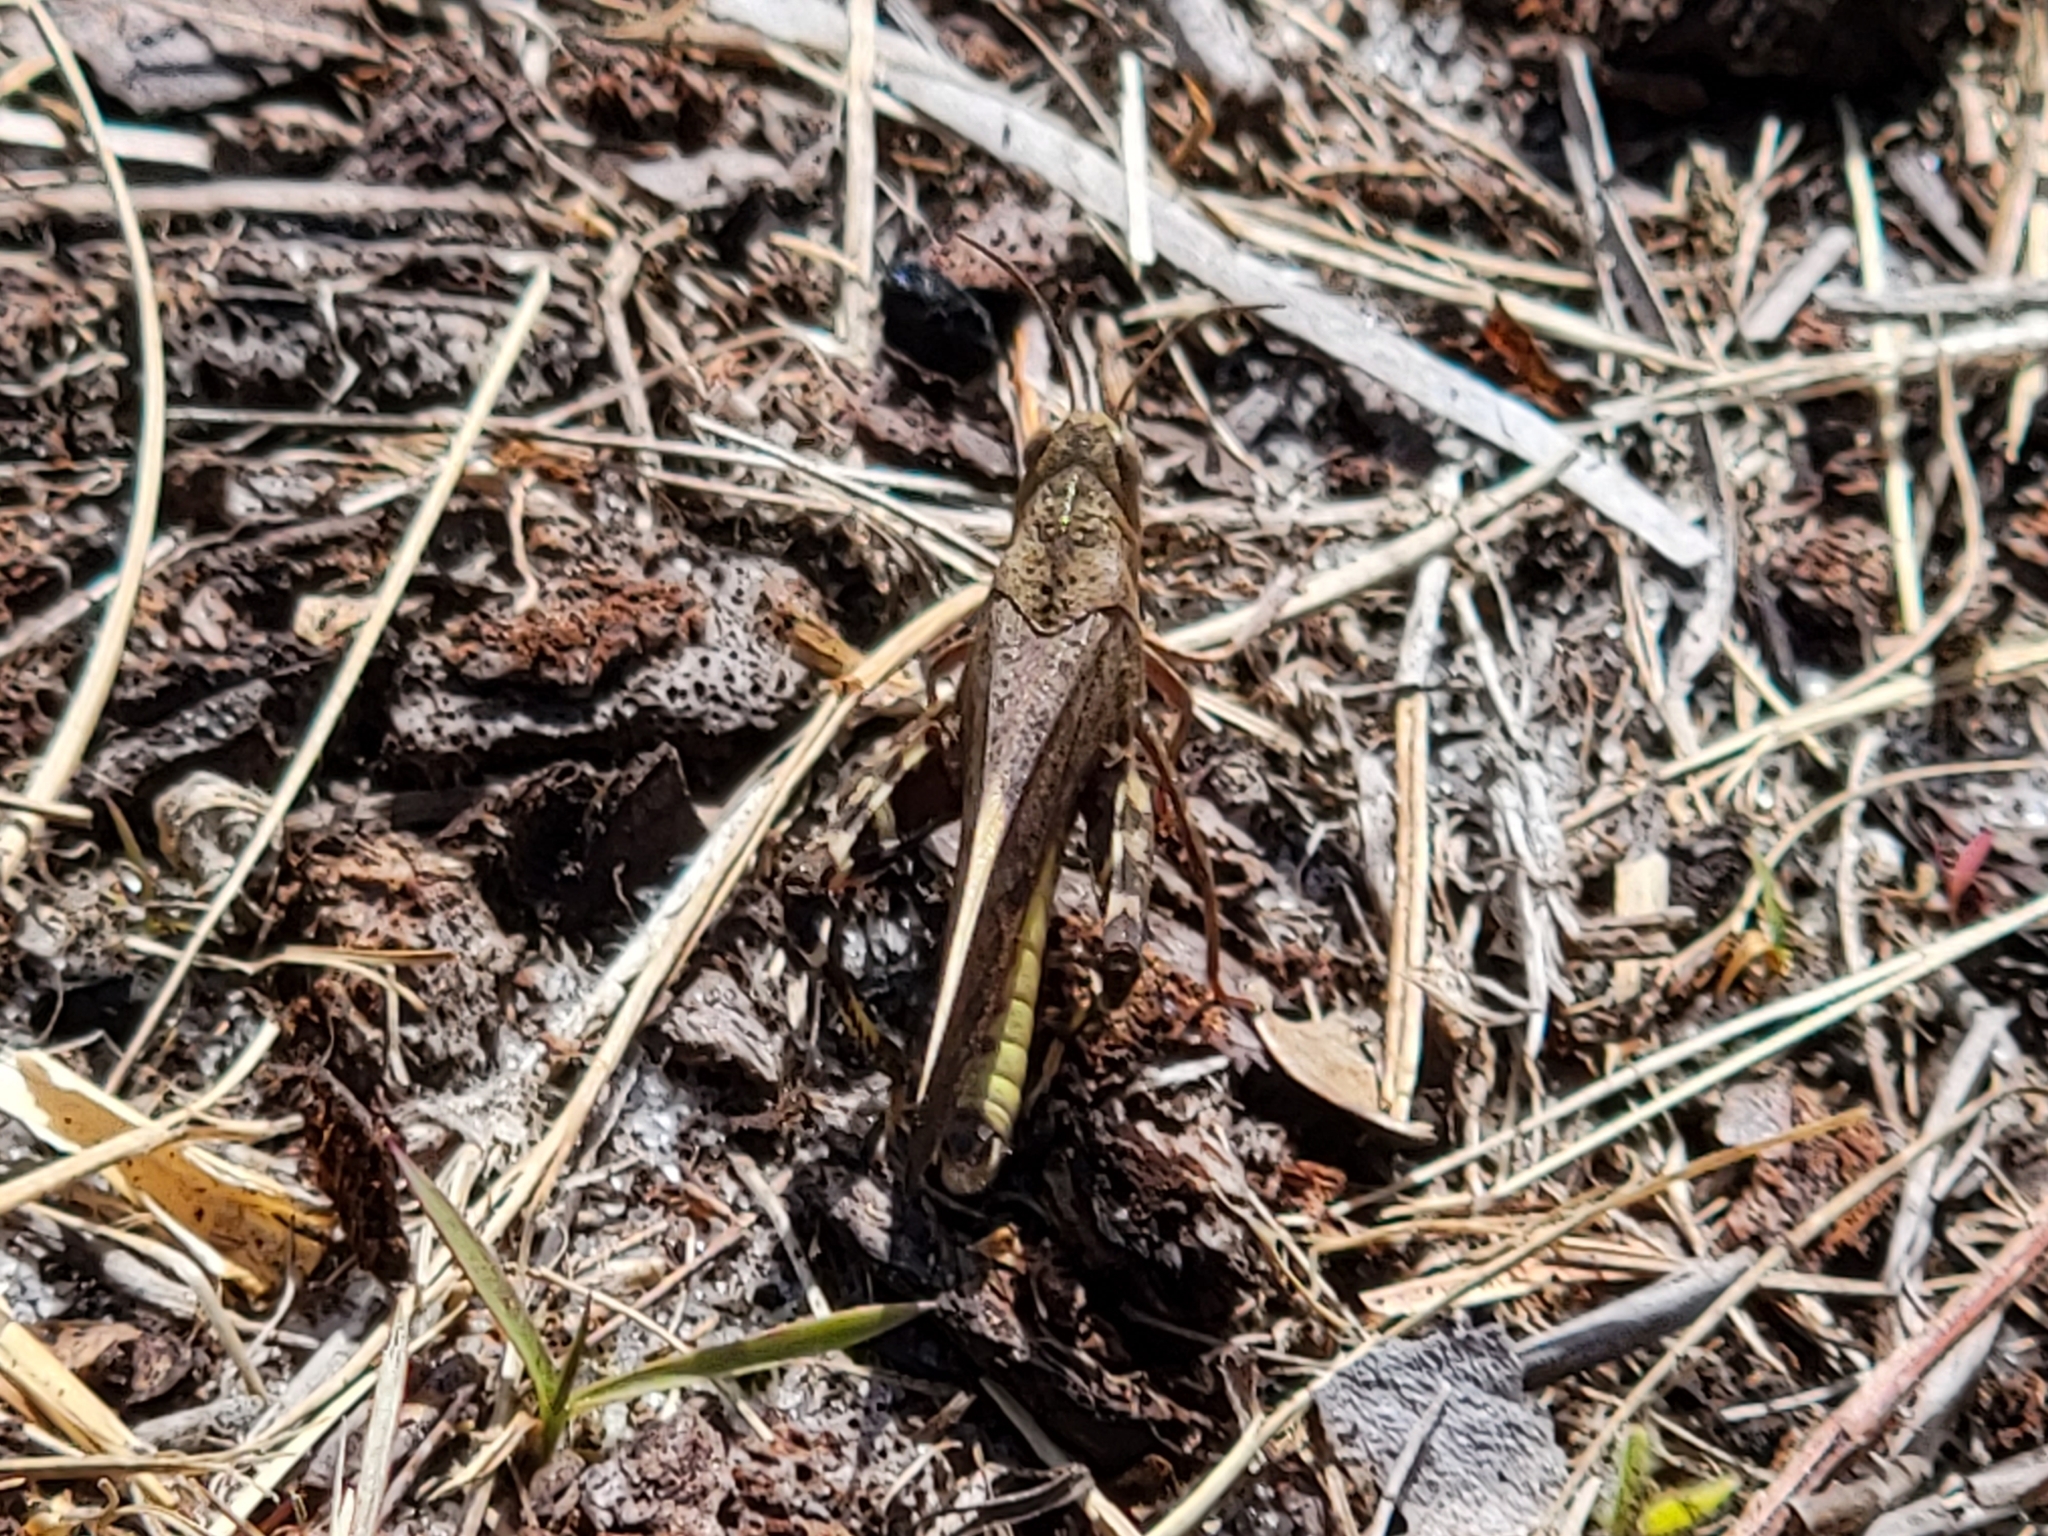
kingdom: Animalia
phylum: Arthropoda
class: Insecta
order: Orthoptera
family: Acrididae
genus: Arphia
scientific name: Arphia granulata
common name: Southern yellow-winged grasshopper
